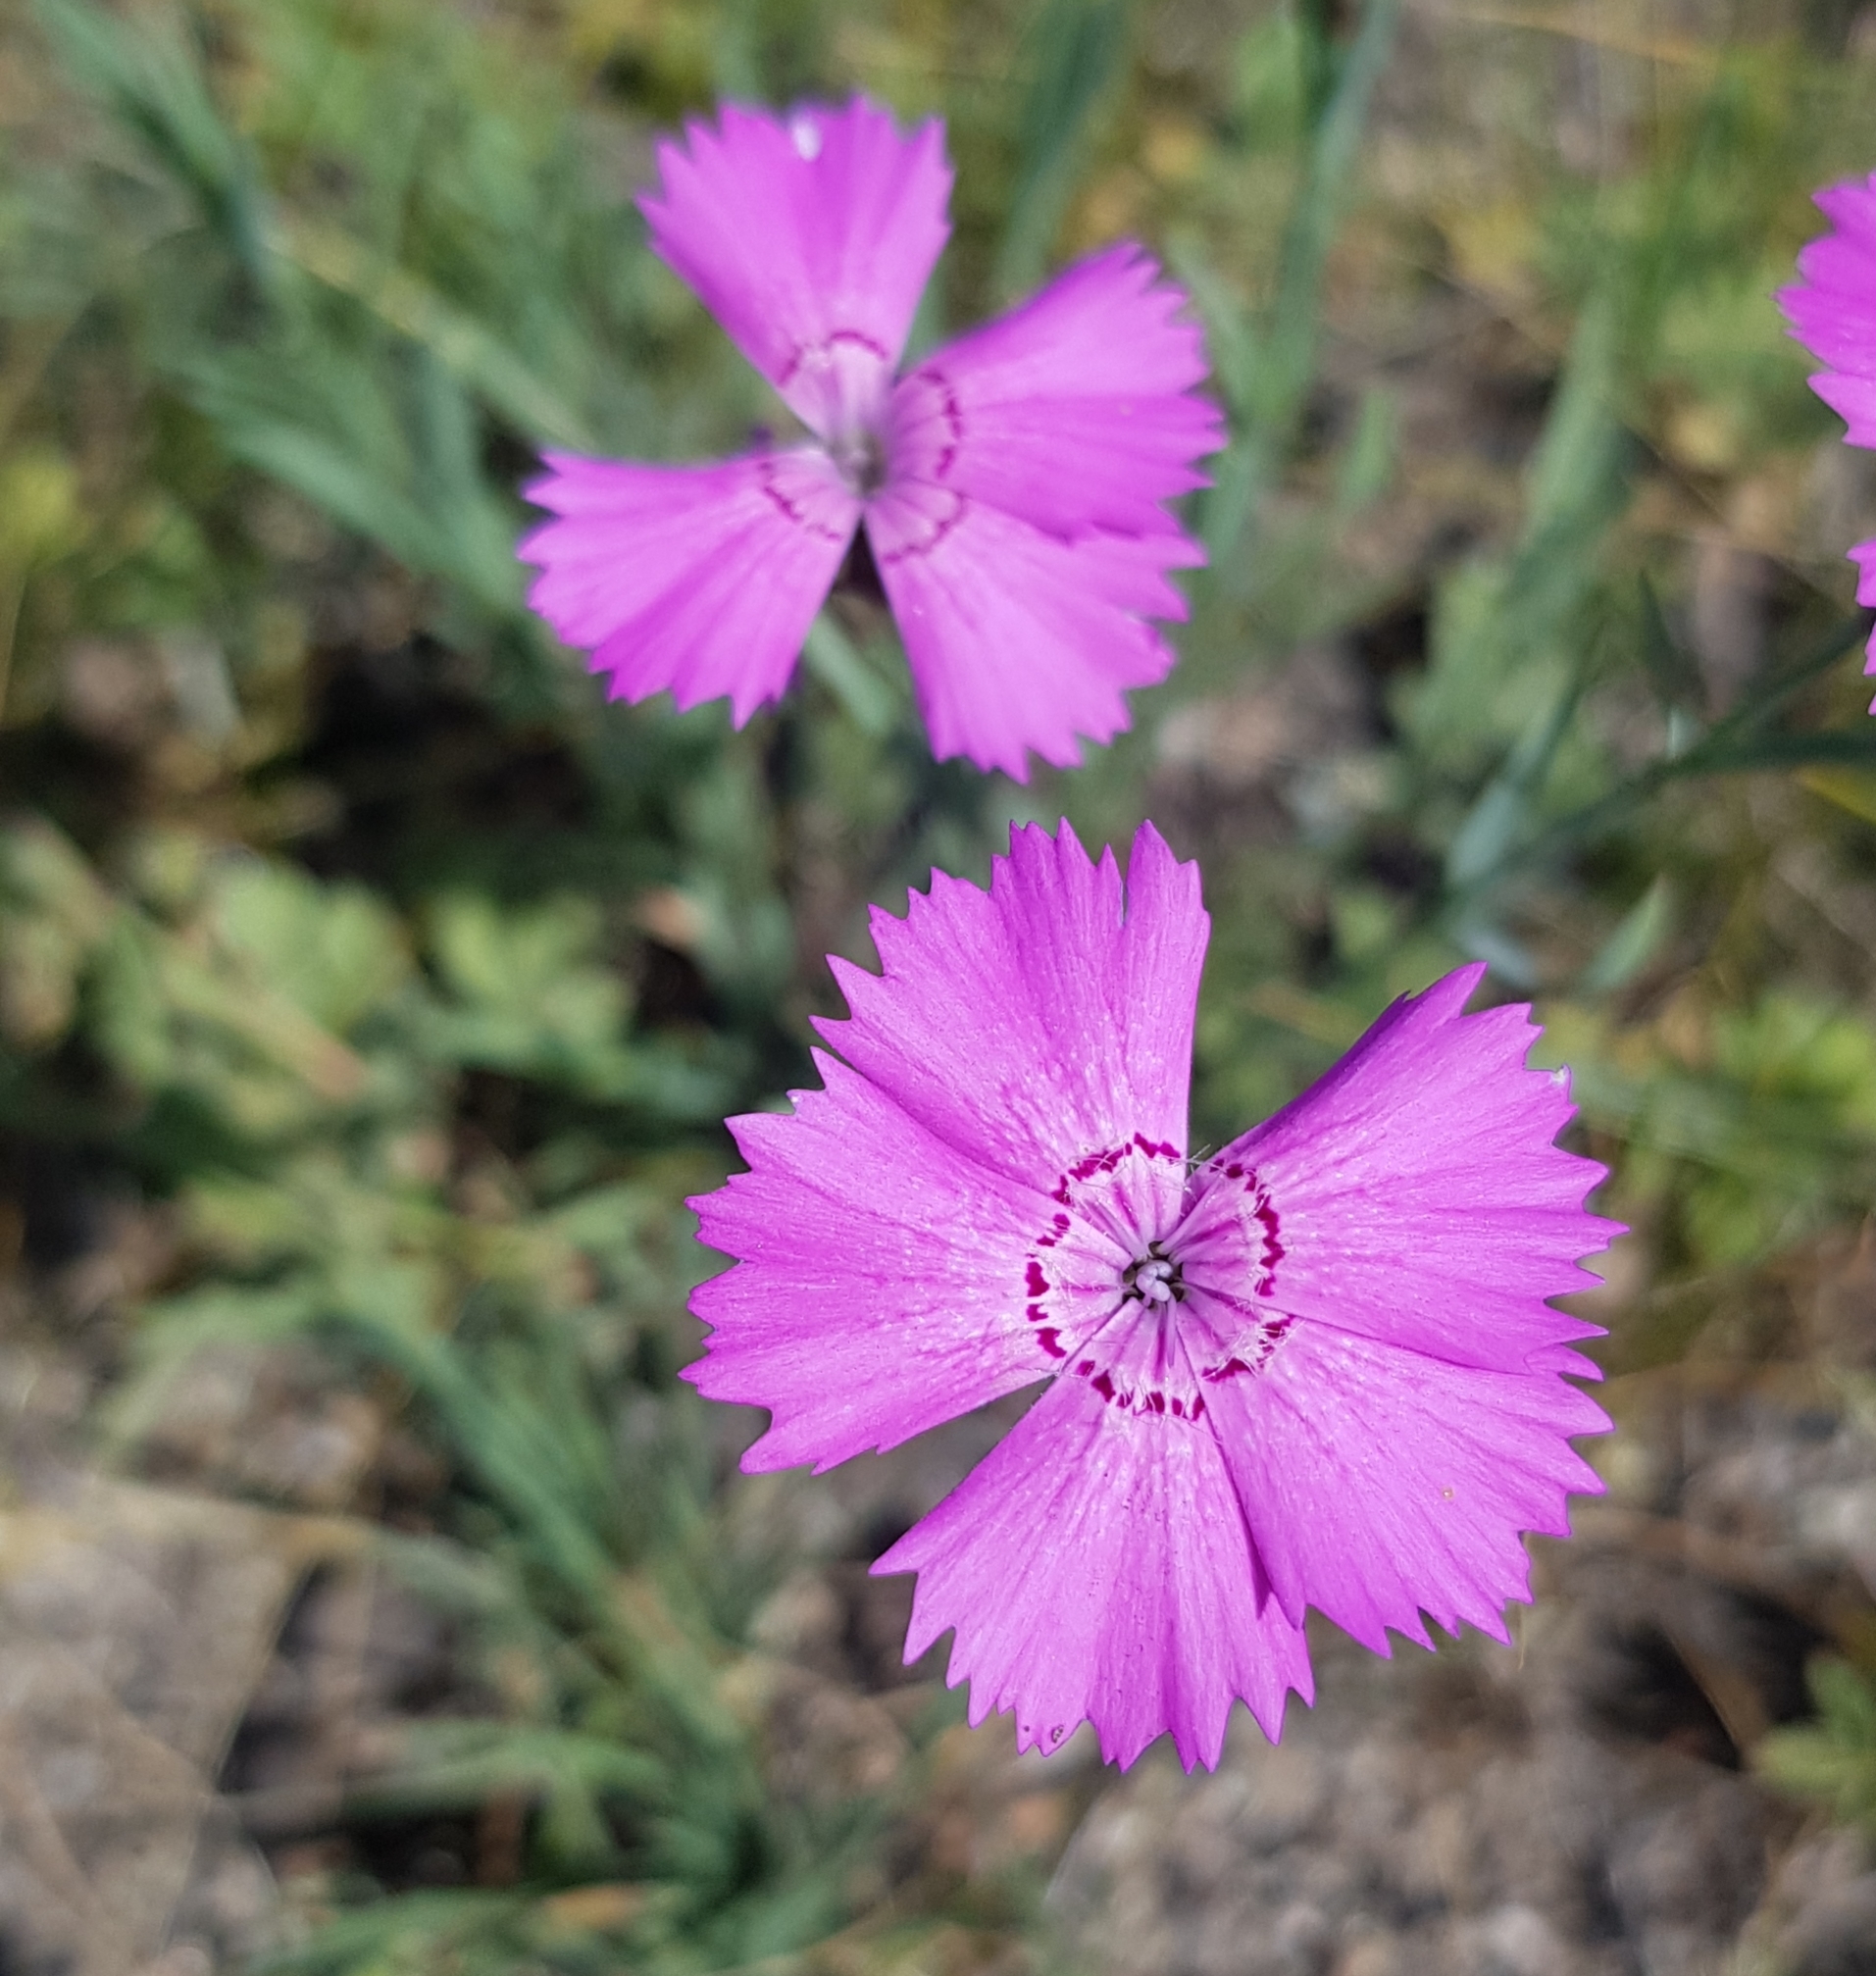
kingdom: Plantae
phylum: Tracheophyta
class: Magnoliopsida
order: Caryophyllales
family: Caryophyllaceae
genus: Dianthus
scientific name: Dianthus chinensis
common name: Rainbow pink
